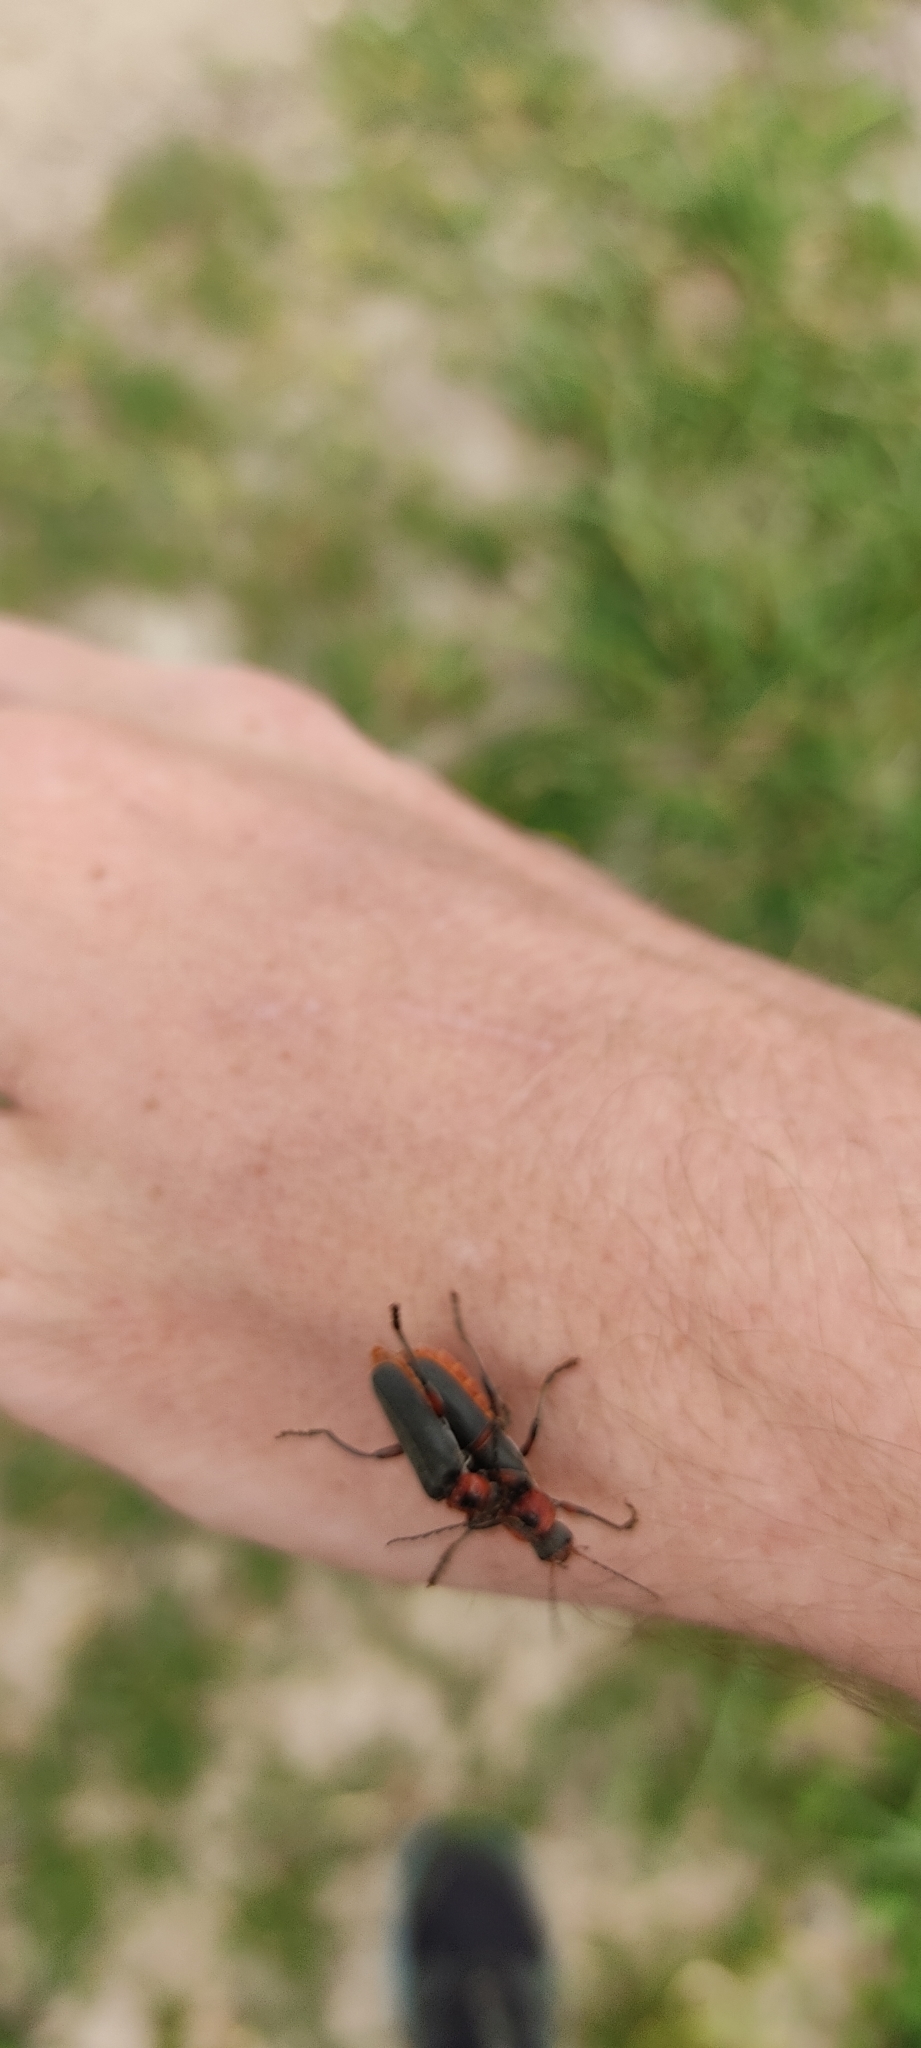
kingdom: Animalia
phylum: Arthropoda
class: Insecta
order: Coleoptera
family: Cantharidae
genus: Cantharis
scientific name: Cantharis rustica
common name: Soldier beetle
